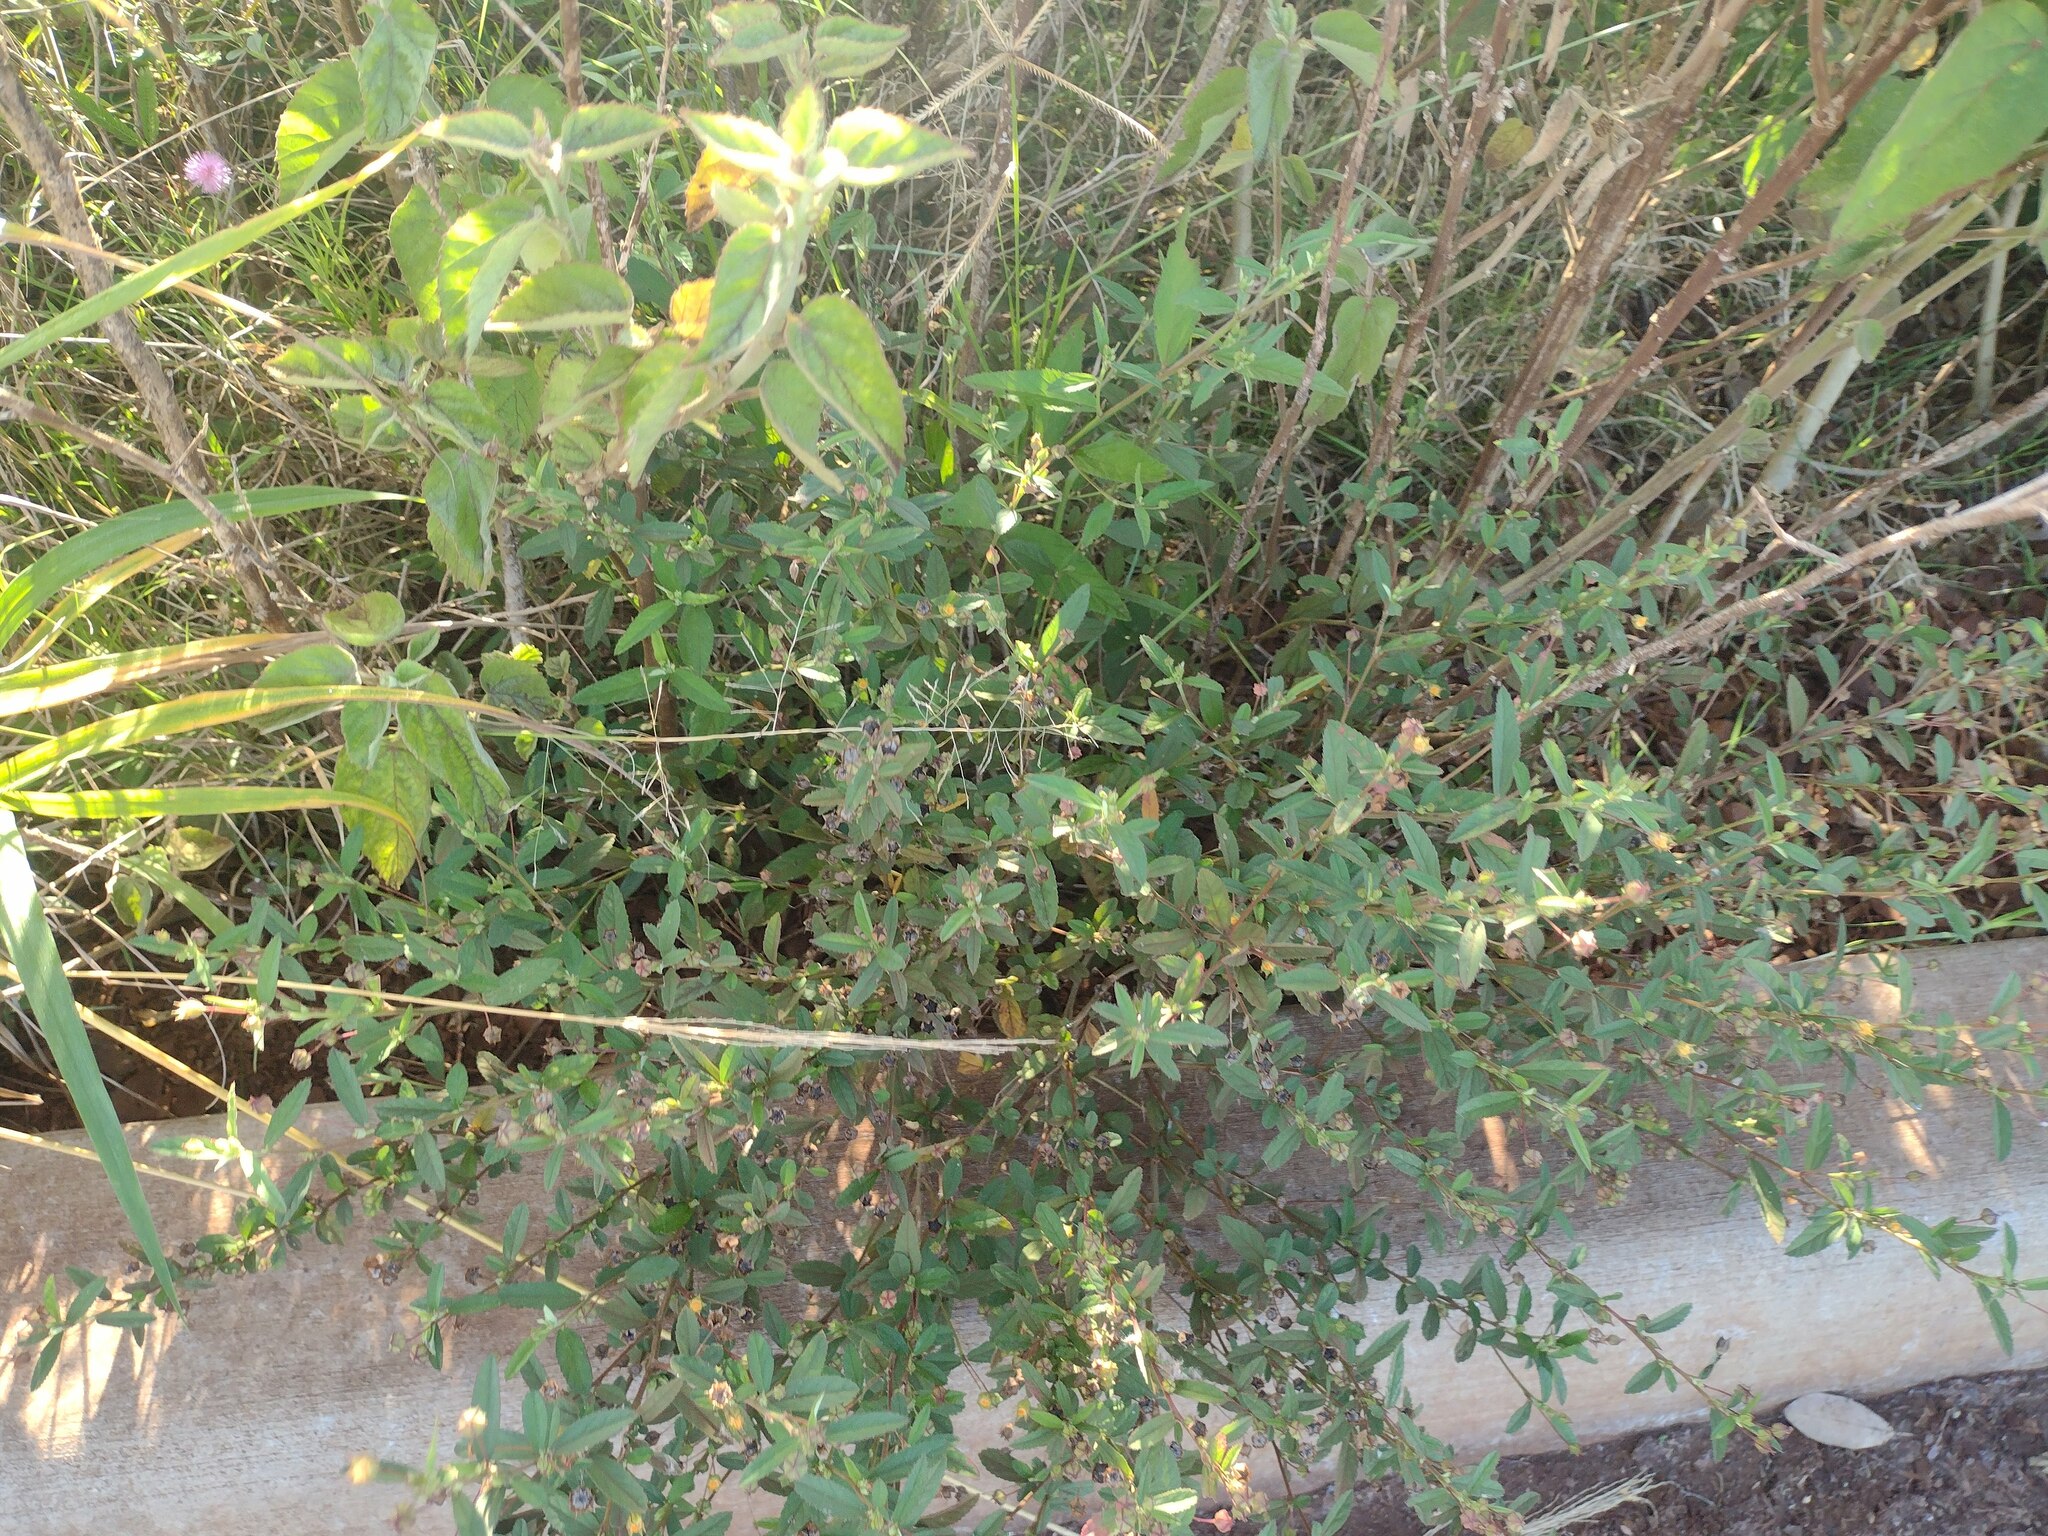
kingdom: Plantae
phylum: Tracheophyta
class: Magnoliopsida
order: Malvales
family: Malvaceae
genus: Sida
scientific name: Sida rhombifolia
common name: Queensland-hemp
